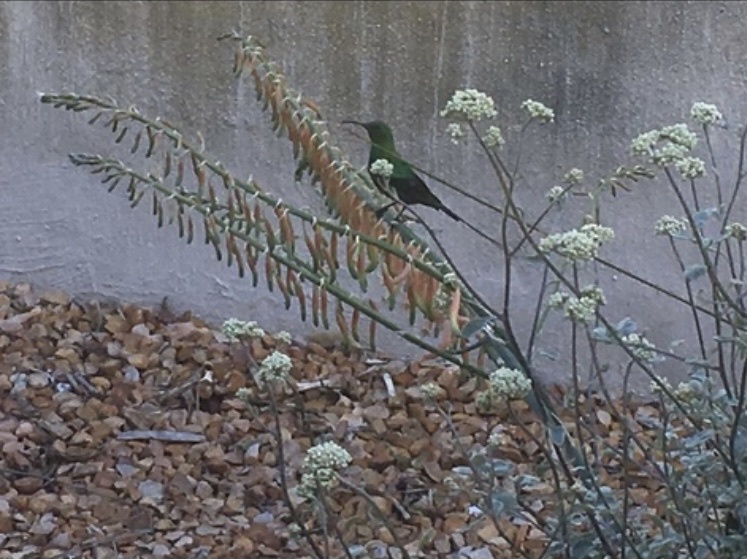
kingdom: Animalia
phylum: Chordata
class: Aves
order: Passeriformes
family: Nectariniidae
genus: Nectarinia
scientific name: Nectarinia famosa
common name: Malachite sunbird
